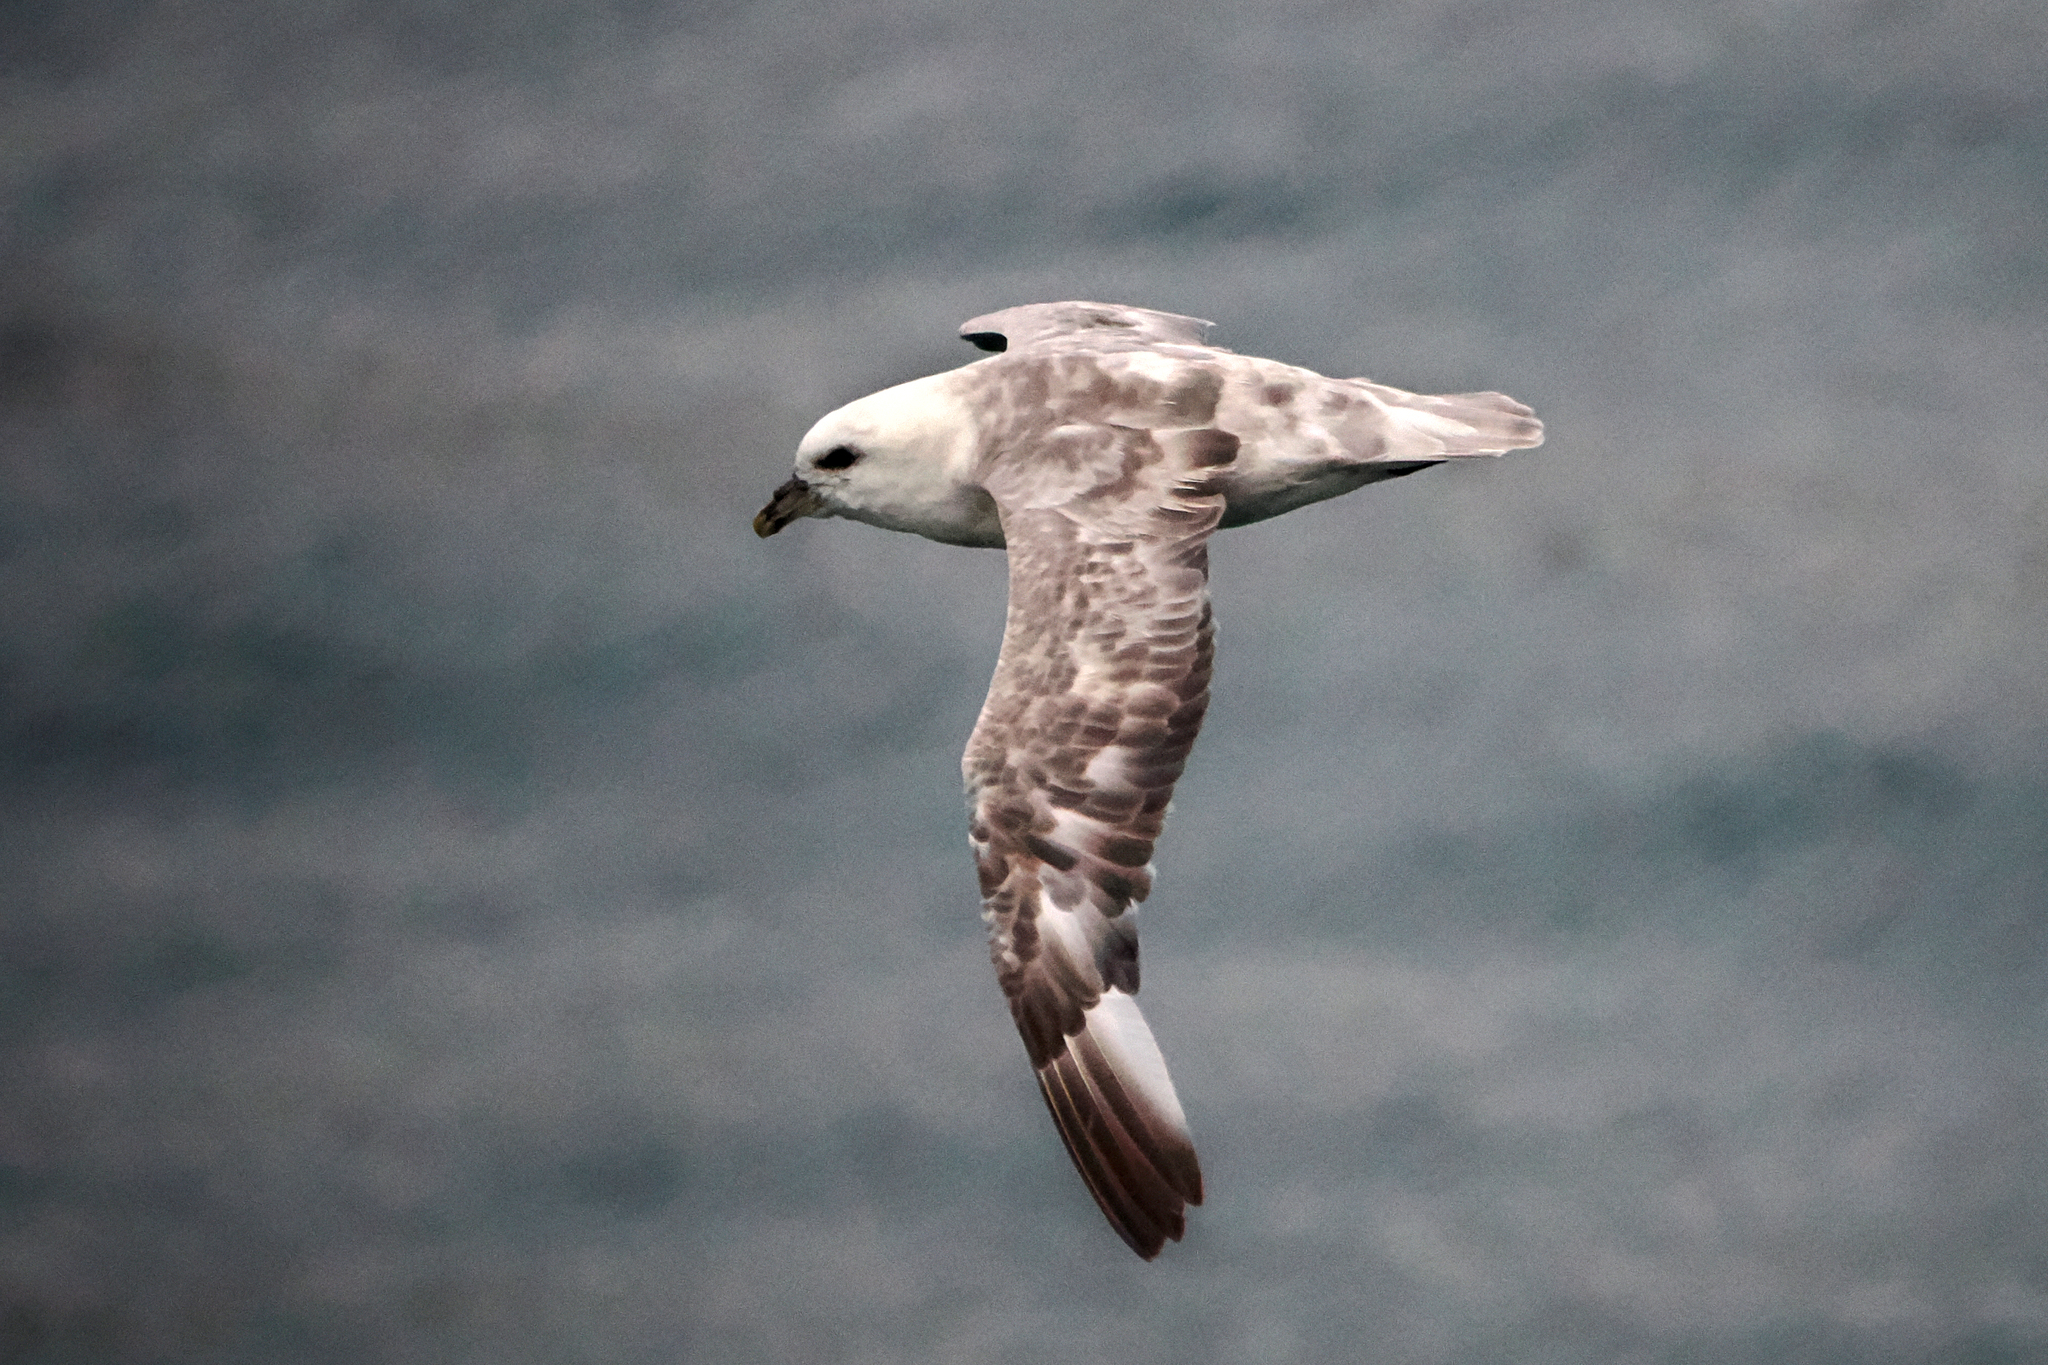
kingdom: Animalia
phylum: Chordata
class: Aves
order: Procellariiformes
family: Procellariidae
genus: Fulmarus
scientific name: Fulmarus glacialis
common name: Northern fulmar
